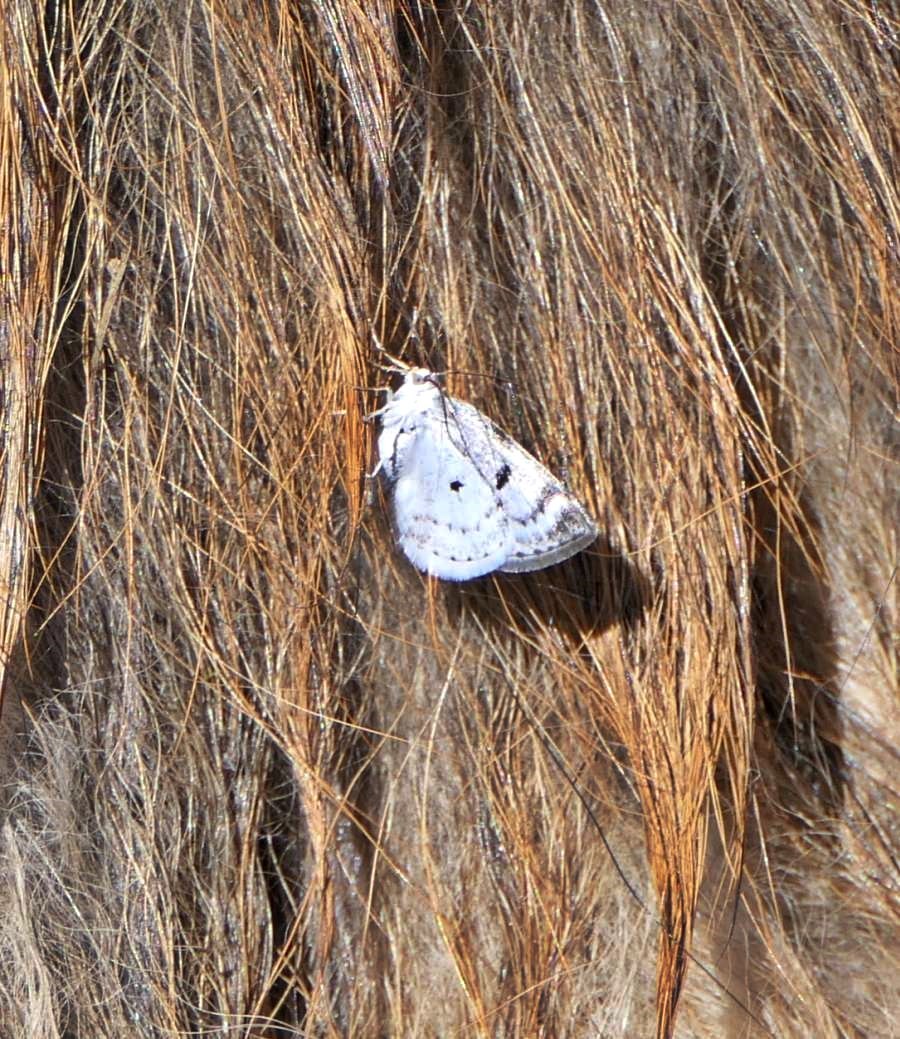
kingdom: Animalia
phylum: Arthropoda
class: Insecta
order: Lepidoptera
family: Geometridae
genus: Lomographa
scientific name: Lomographa semiclarata
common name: Bluish spring moth
